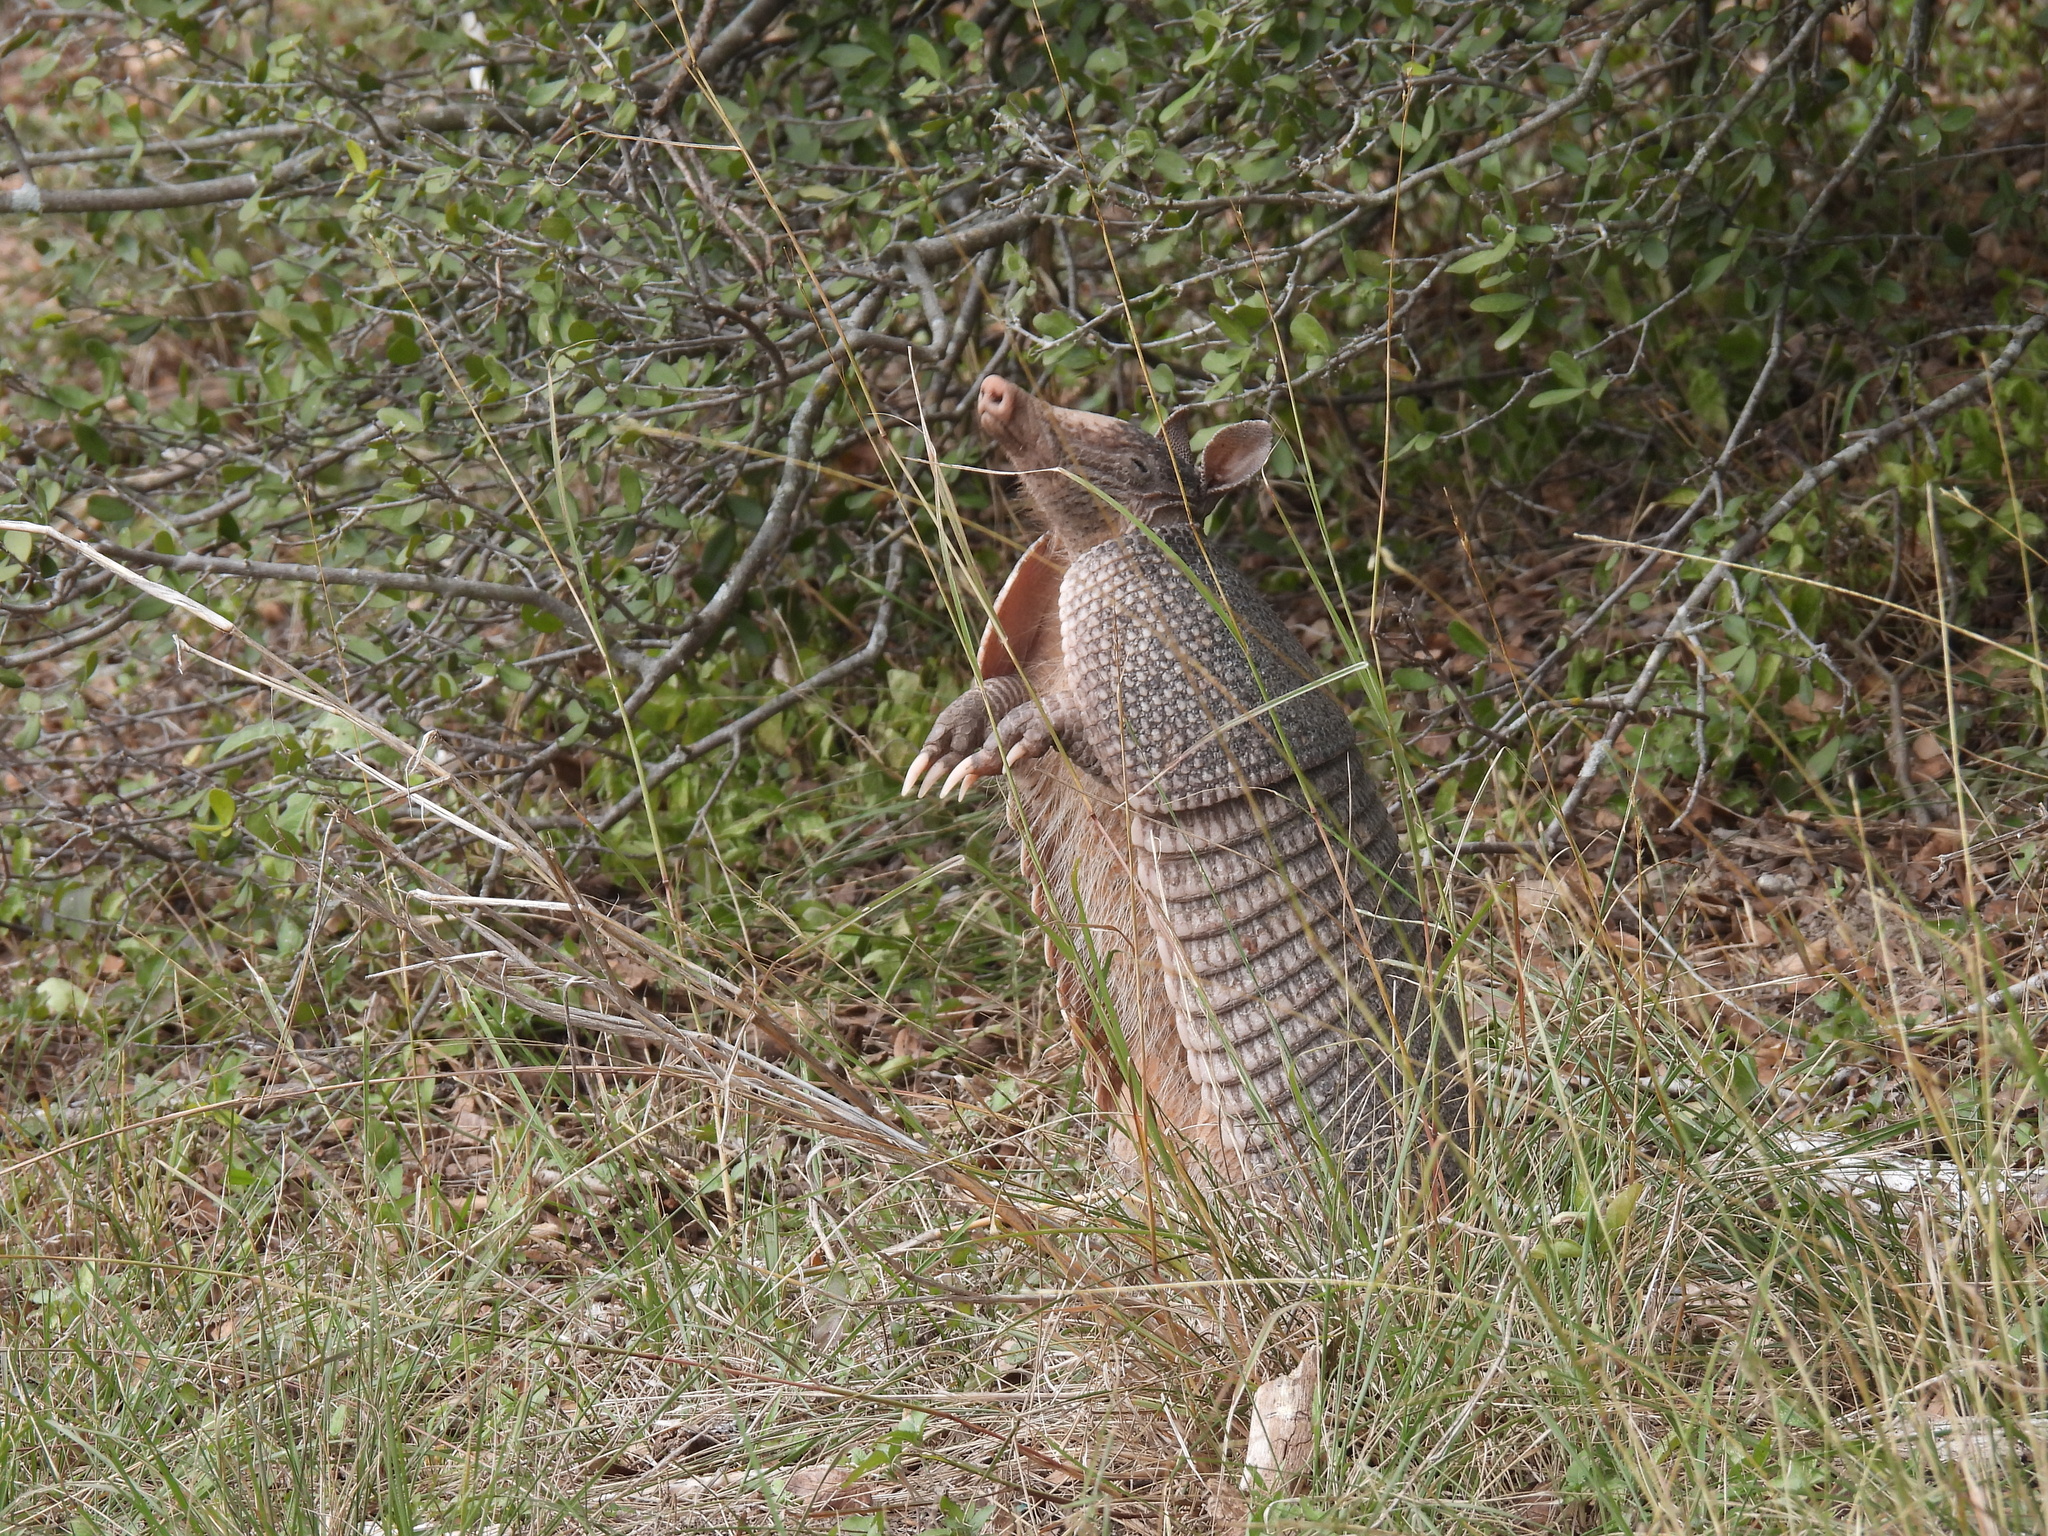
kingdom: Animalia
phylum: Chordata
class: Mammalia
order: Cingulata
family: Dasypodidae
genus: Dasypus
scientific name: Dasypus novemcinctus
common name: Nine-banded armadillo
